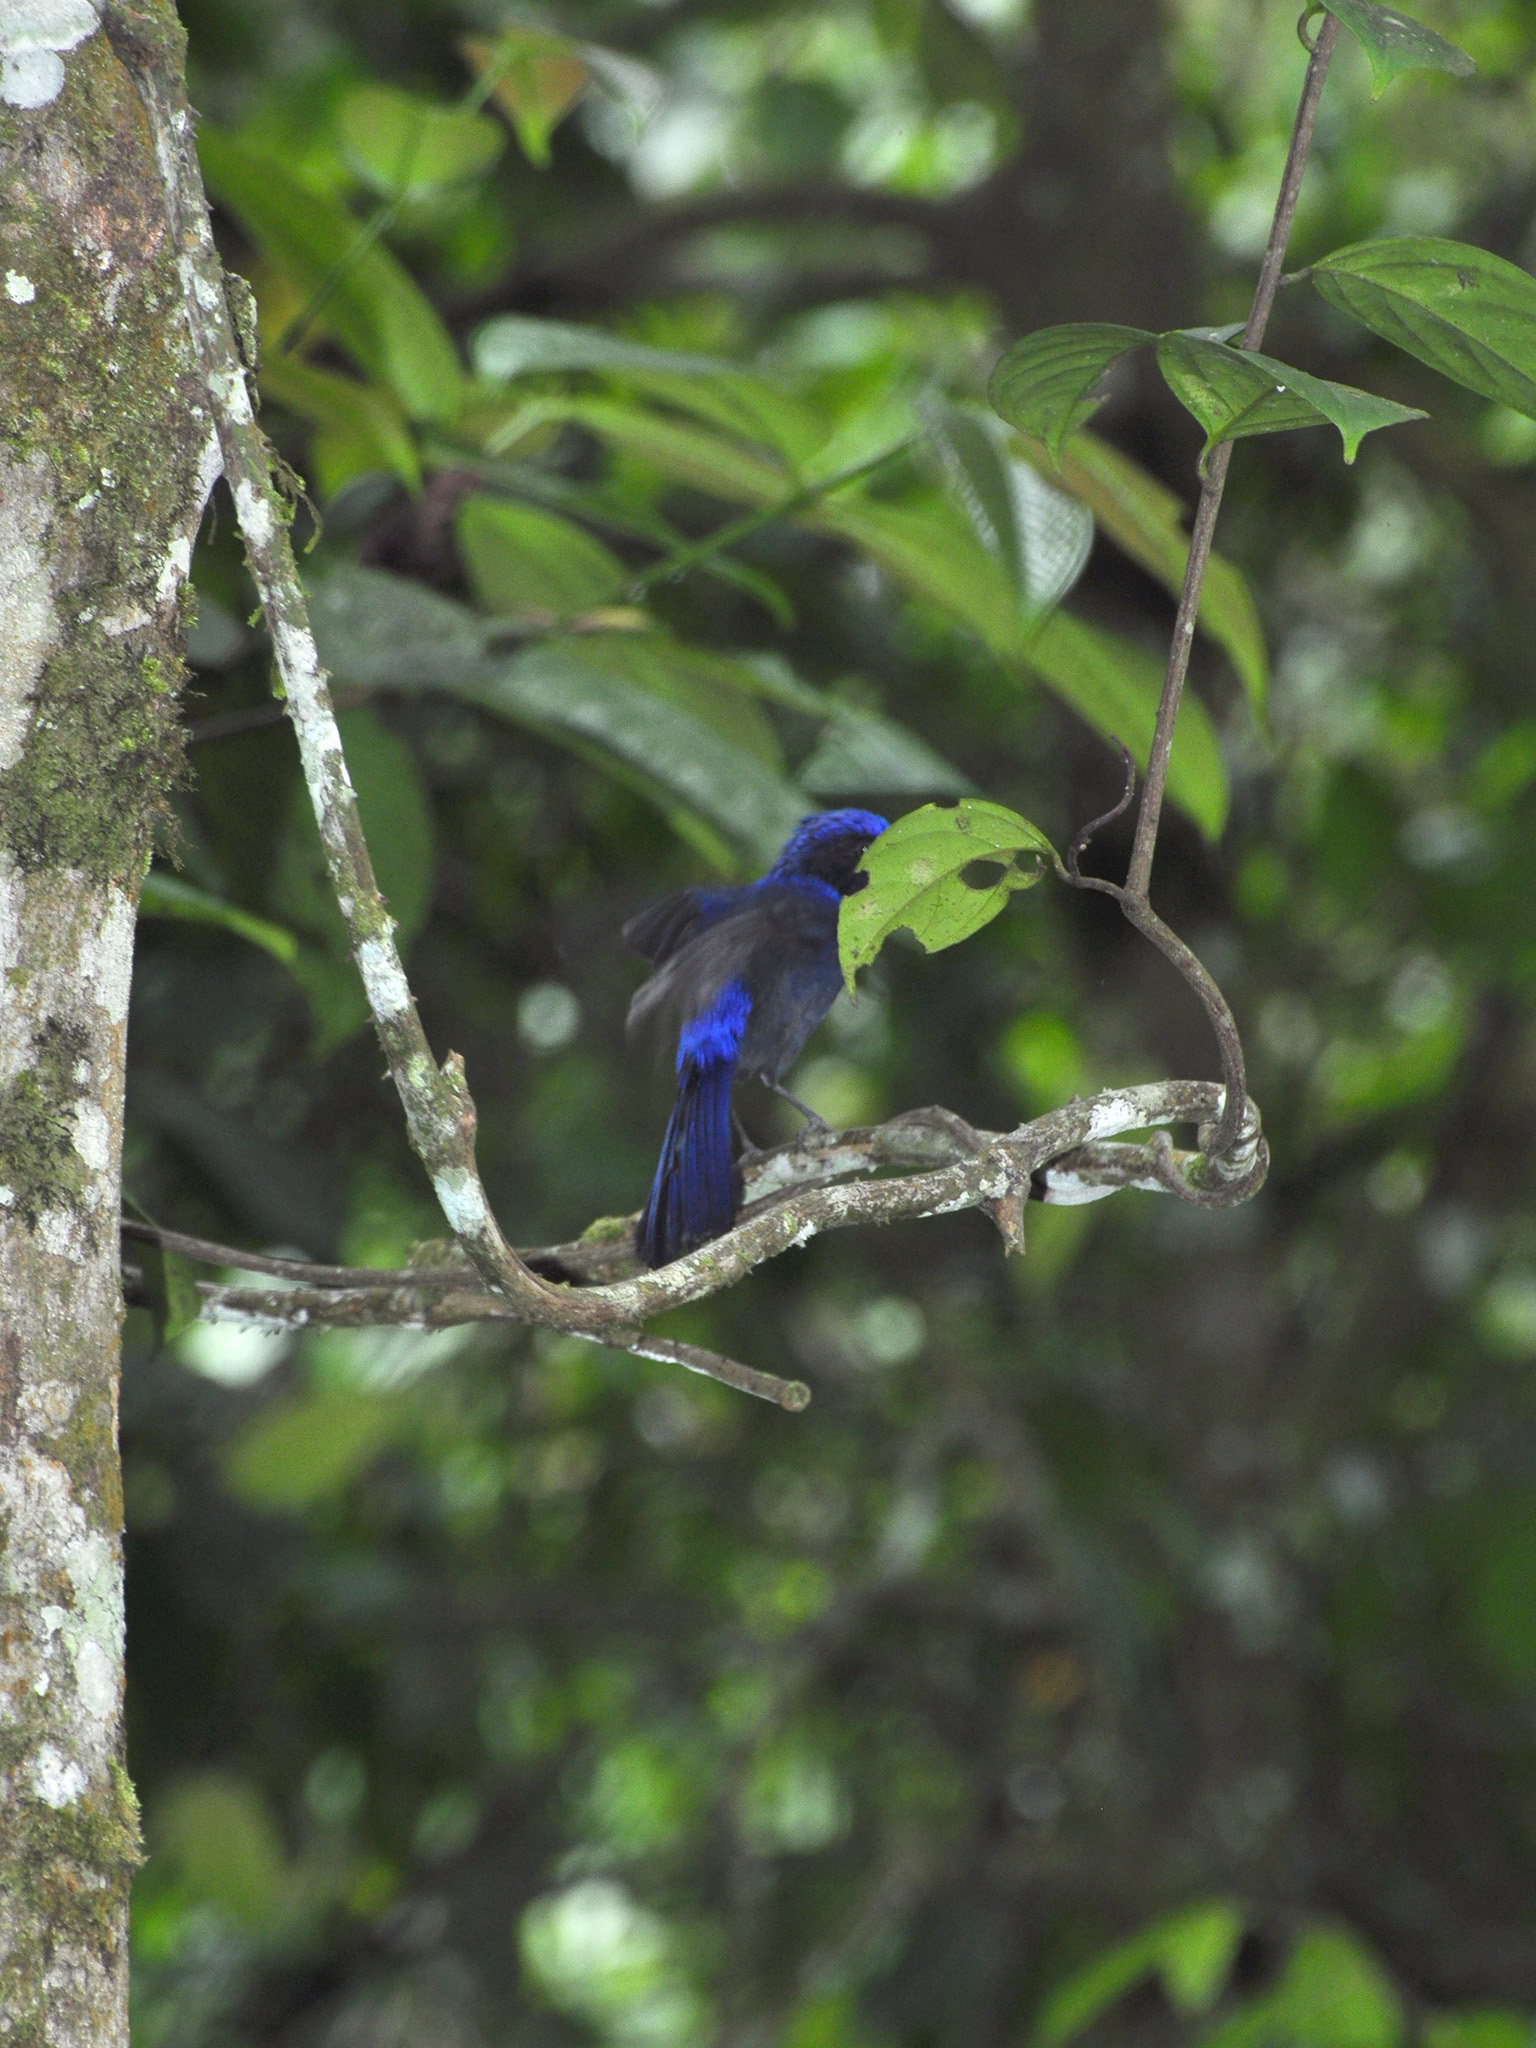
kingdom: Animalia
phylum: Chordata
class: Aves
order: Passeriformes
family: Muscicapidae
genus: Niltava
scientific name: Niltava grandis
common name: Large niltava
